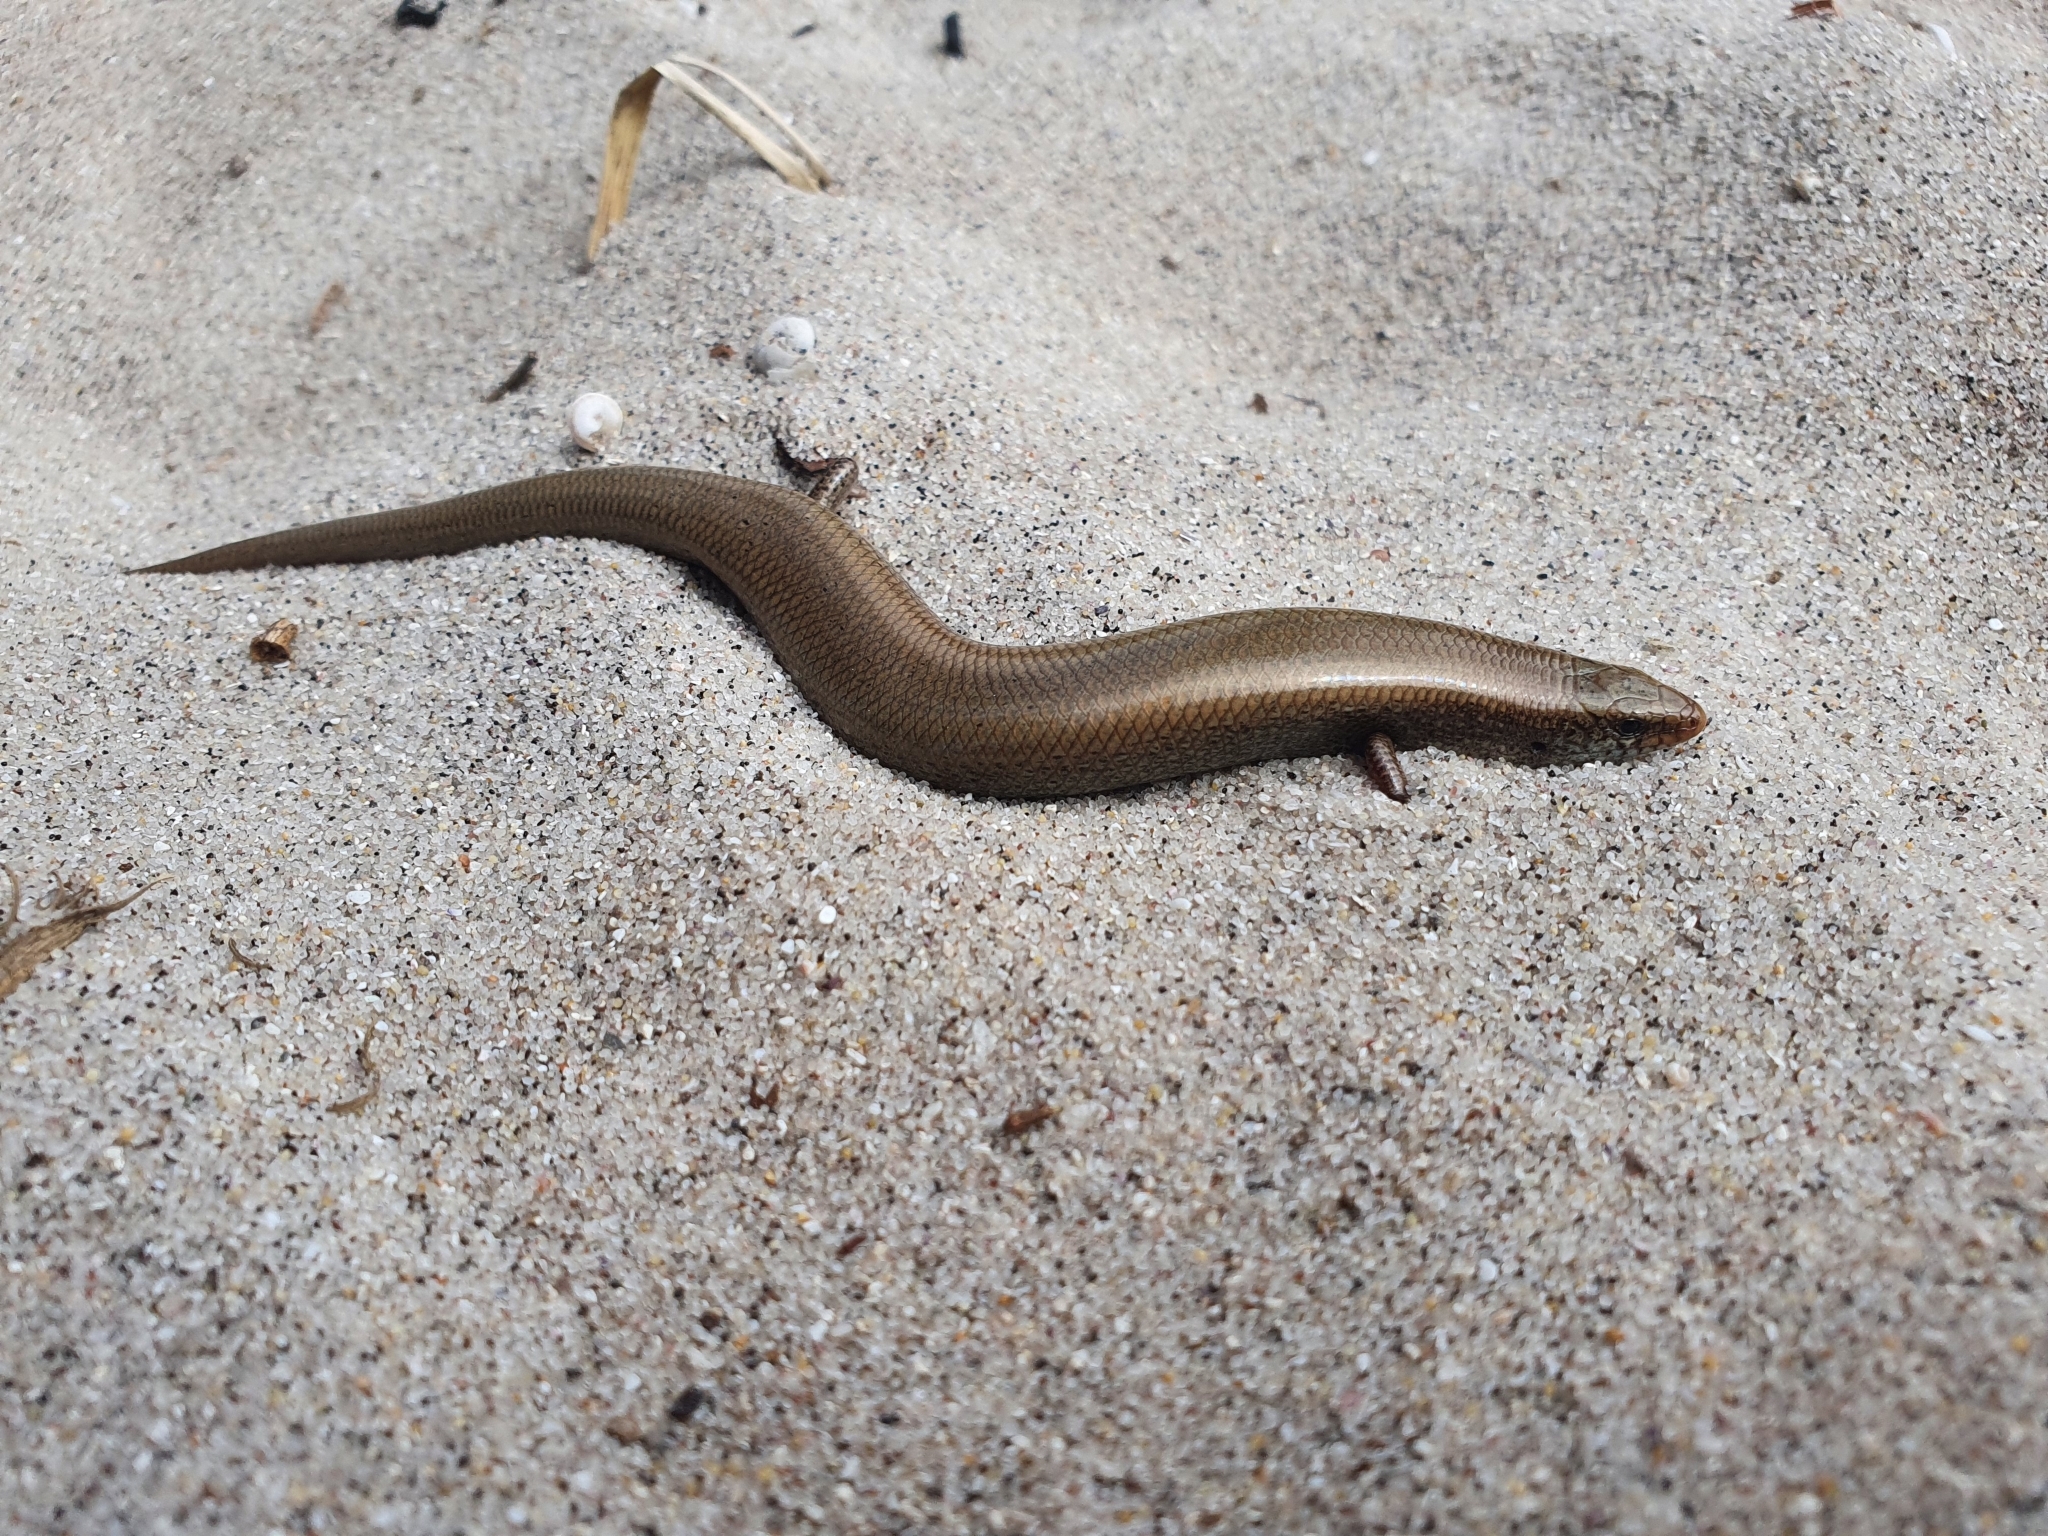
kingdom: Animalia
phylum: Chordata
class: Squamata
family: Scincidae
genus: Chalcides
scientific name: Chalcides bedriagai
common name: Spanish cylindrical skink
